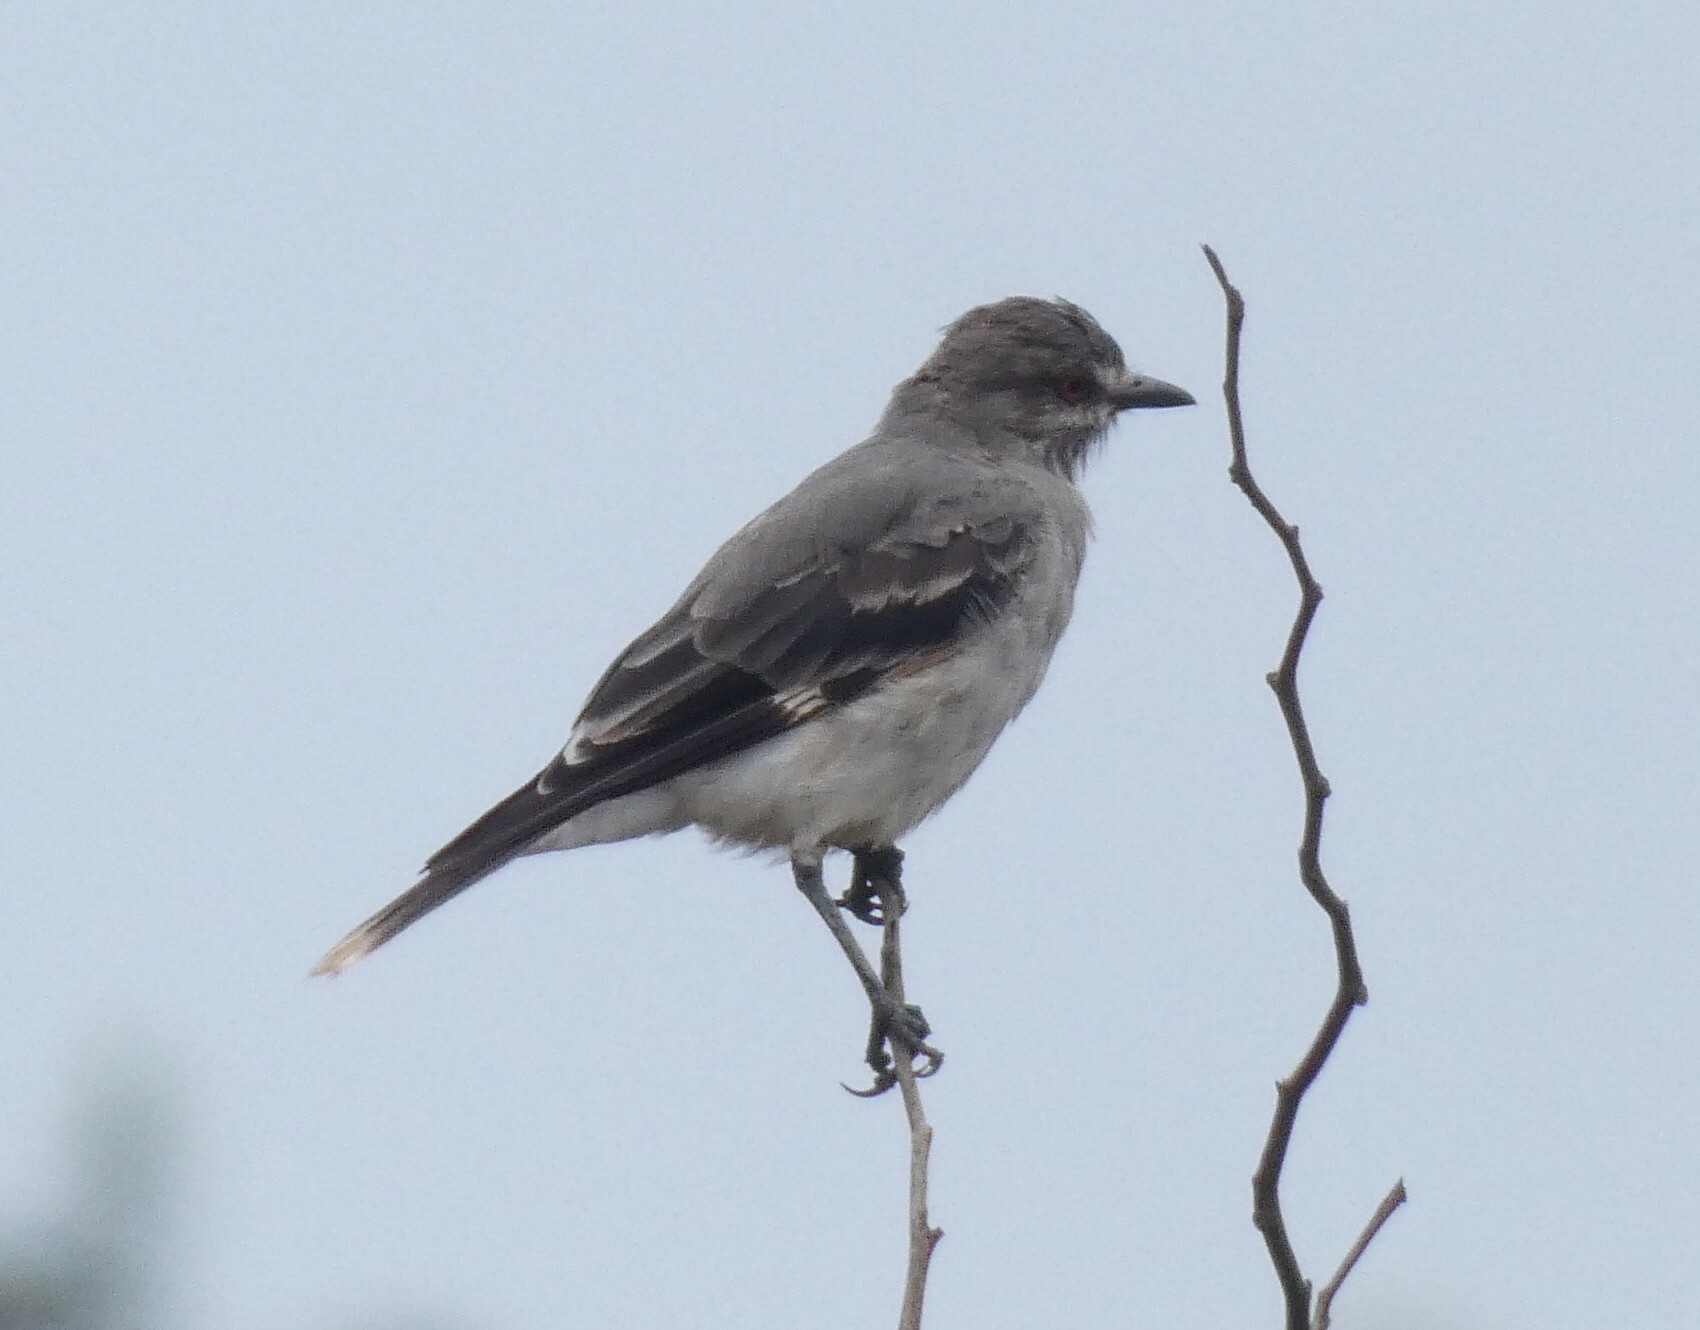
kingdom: Animalia
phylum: Chordata
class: Aves
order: Passeriformes
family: Tyrannidae
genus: Xolmis
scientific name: Xolmis cinereus
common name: Grey monjita
